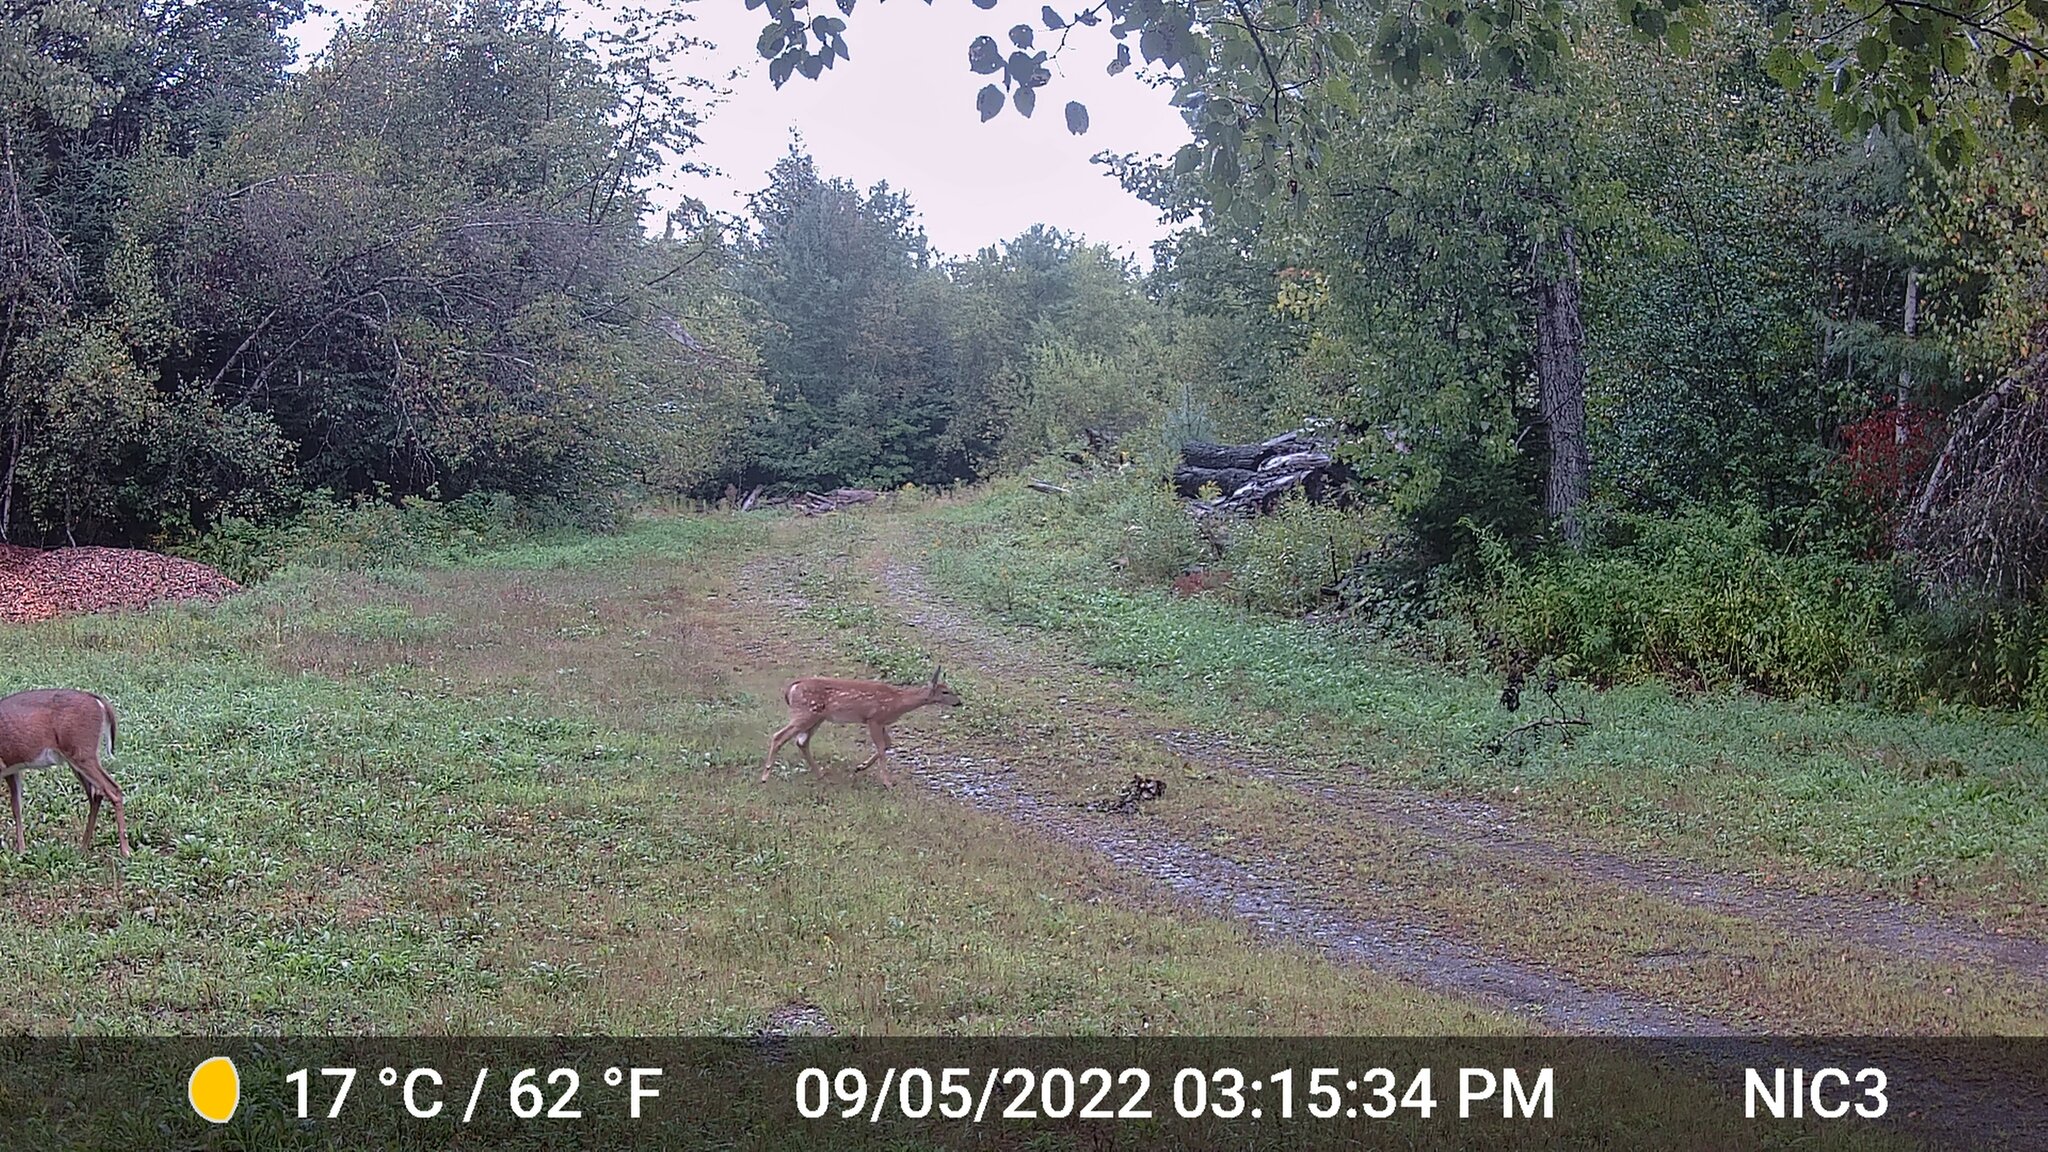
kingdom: Animalia
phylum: Chordata
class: Mammalia
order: Artiodactyla
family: Cervidae
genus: Odocoileus
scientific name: Odocoileus virginianus
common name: White-tailed deer
